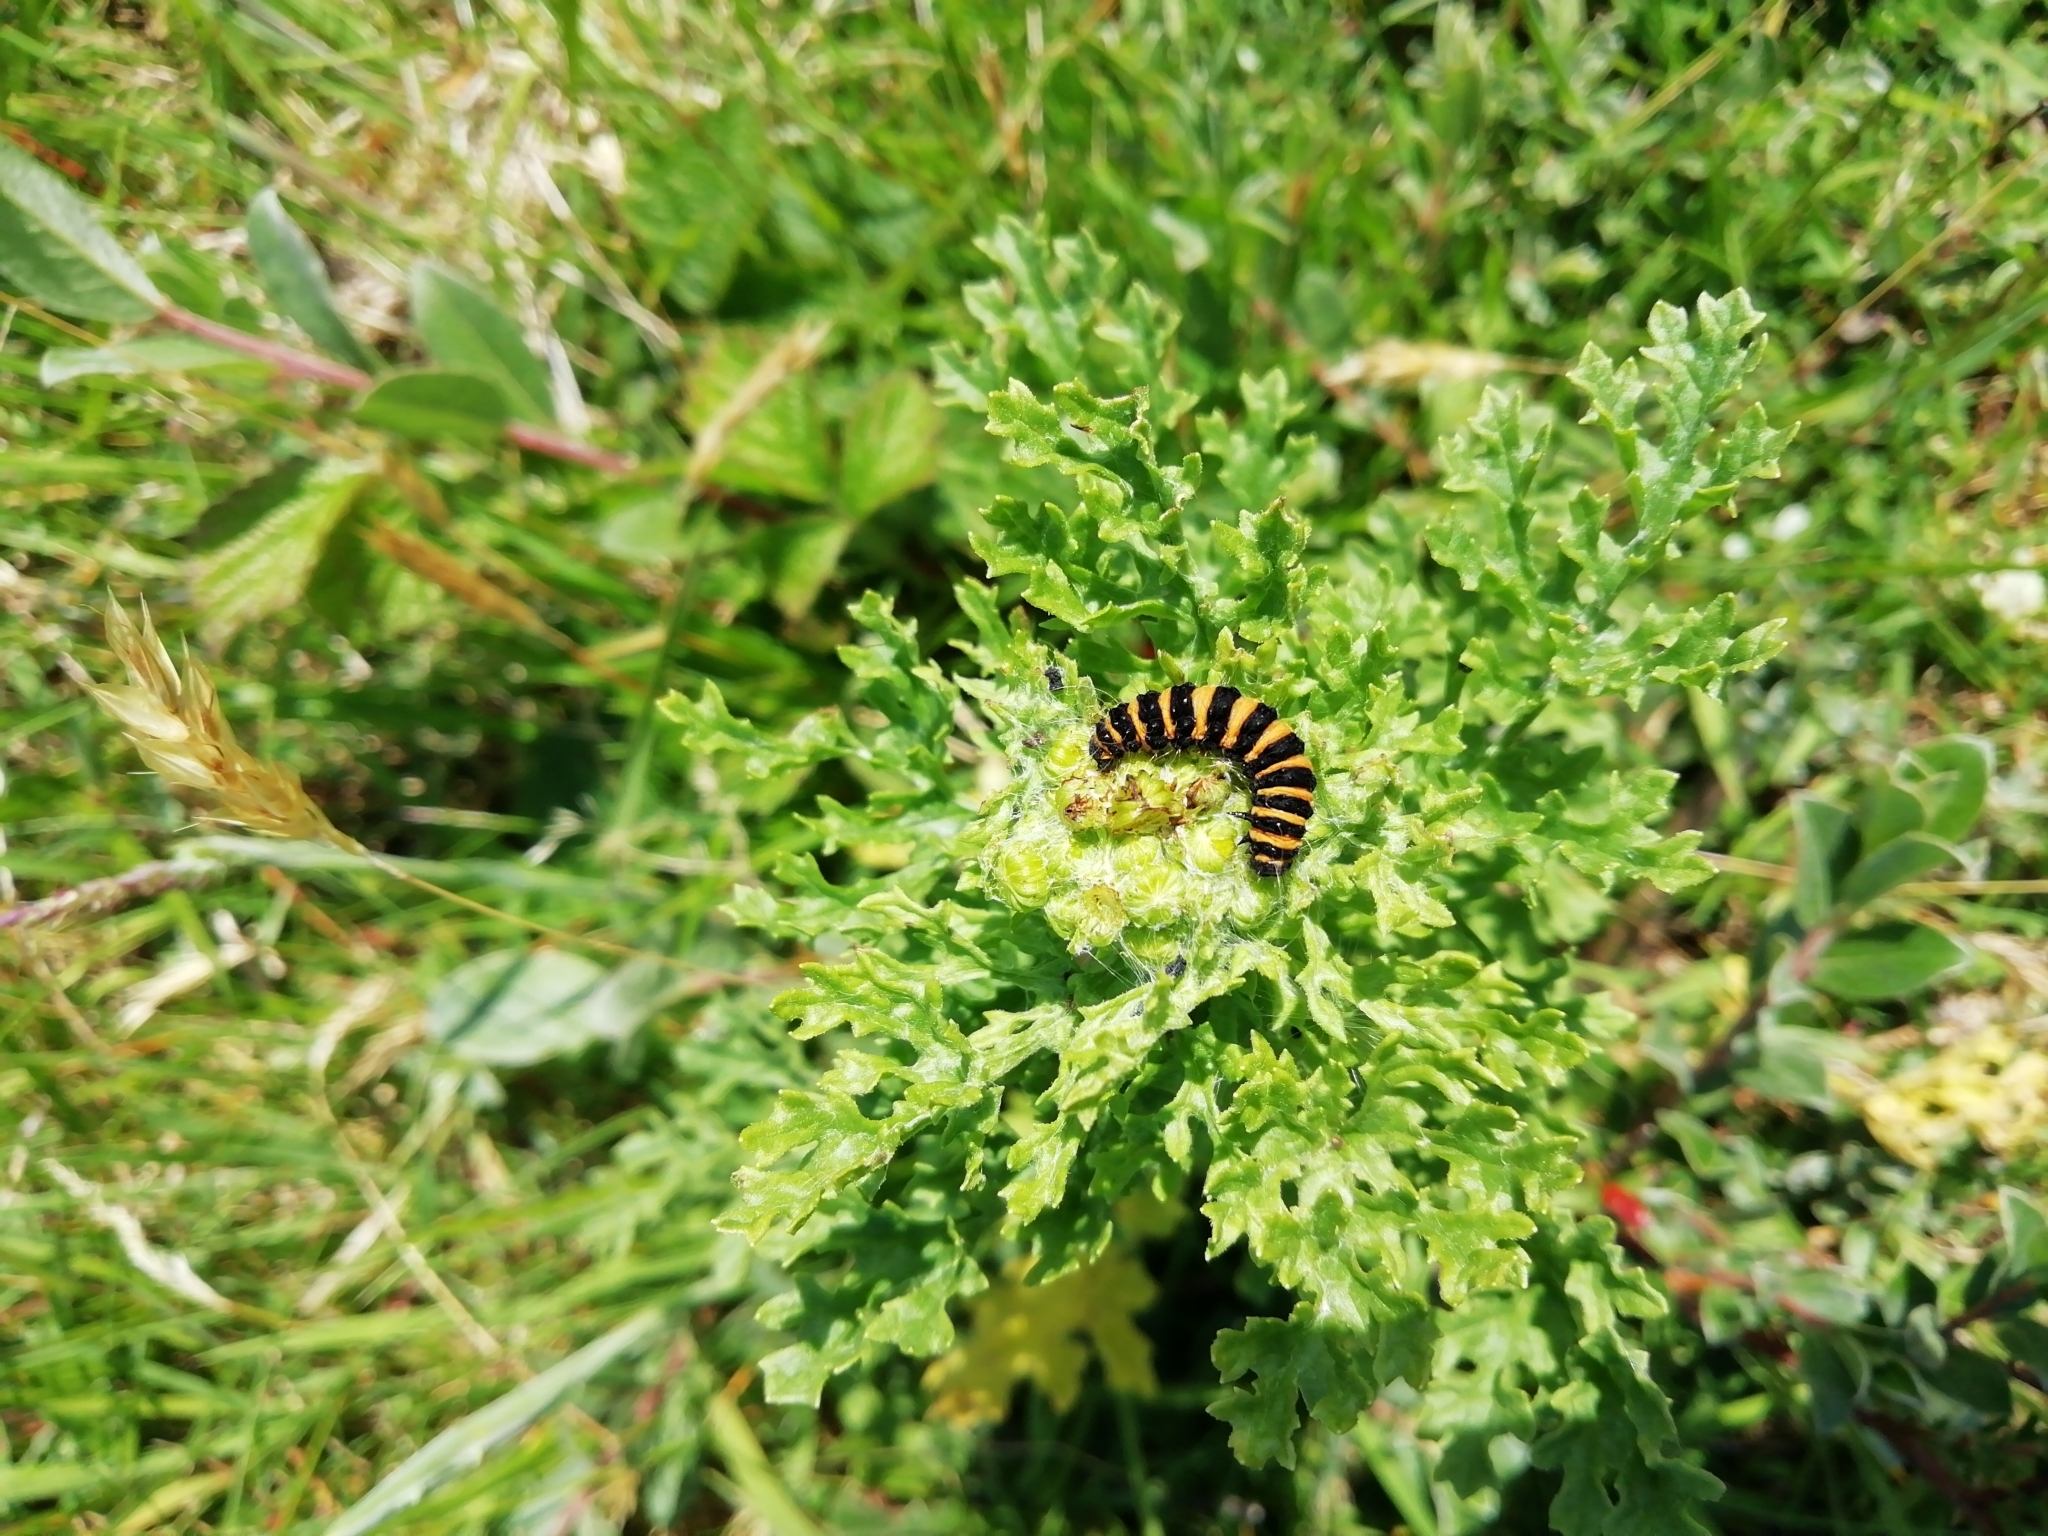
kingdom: Animalia
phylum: Arthropoda
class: Insecta
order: Lepidoptera
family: Erebidae
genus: Tyria
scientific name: Tyria jacobaeae
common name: Cinnabar
